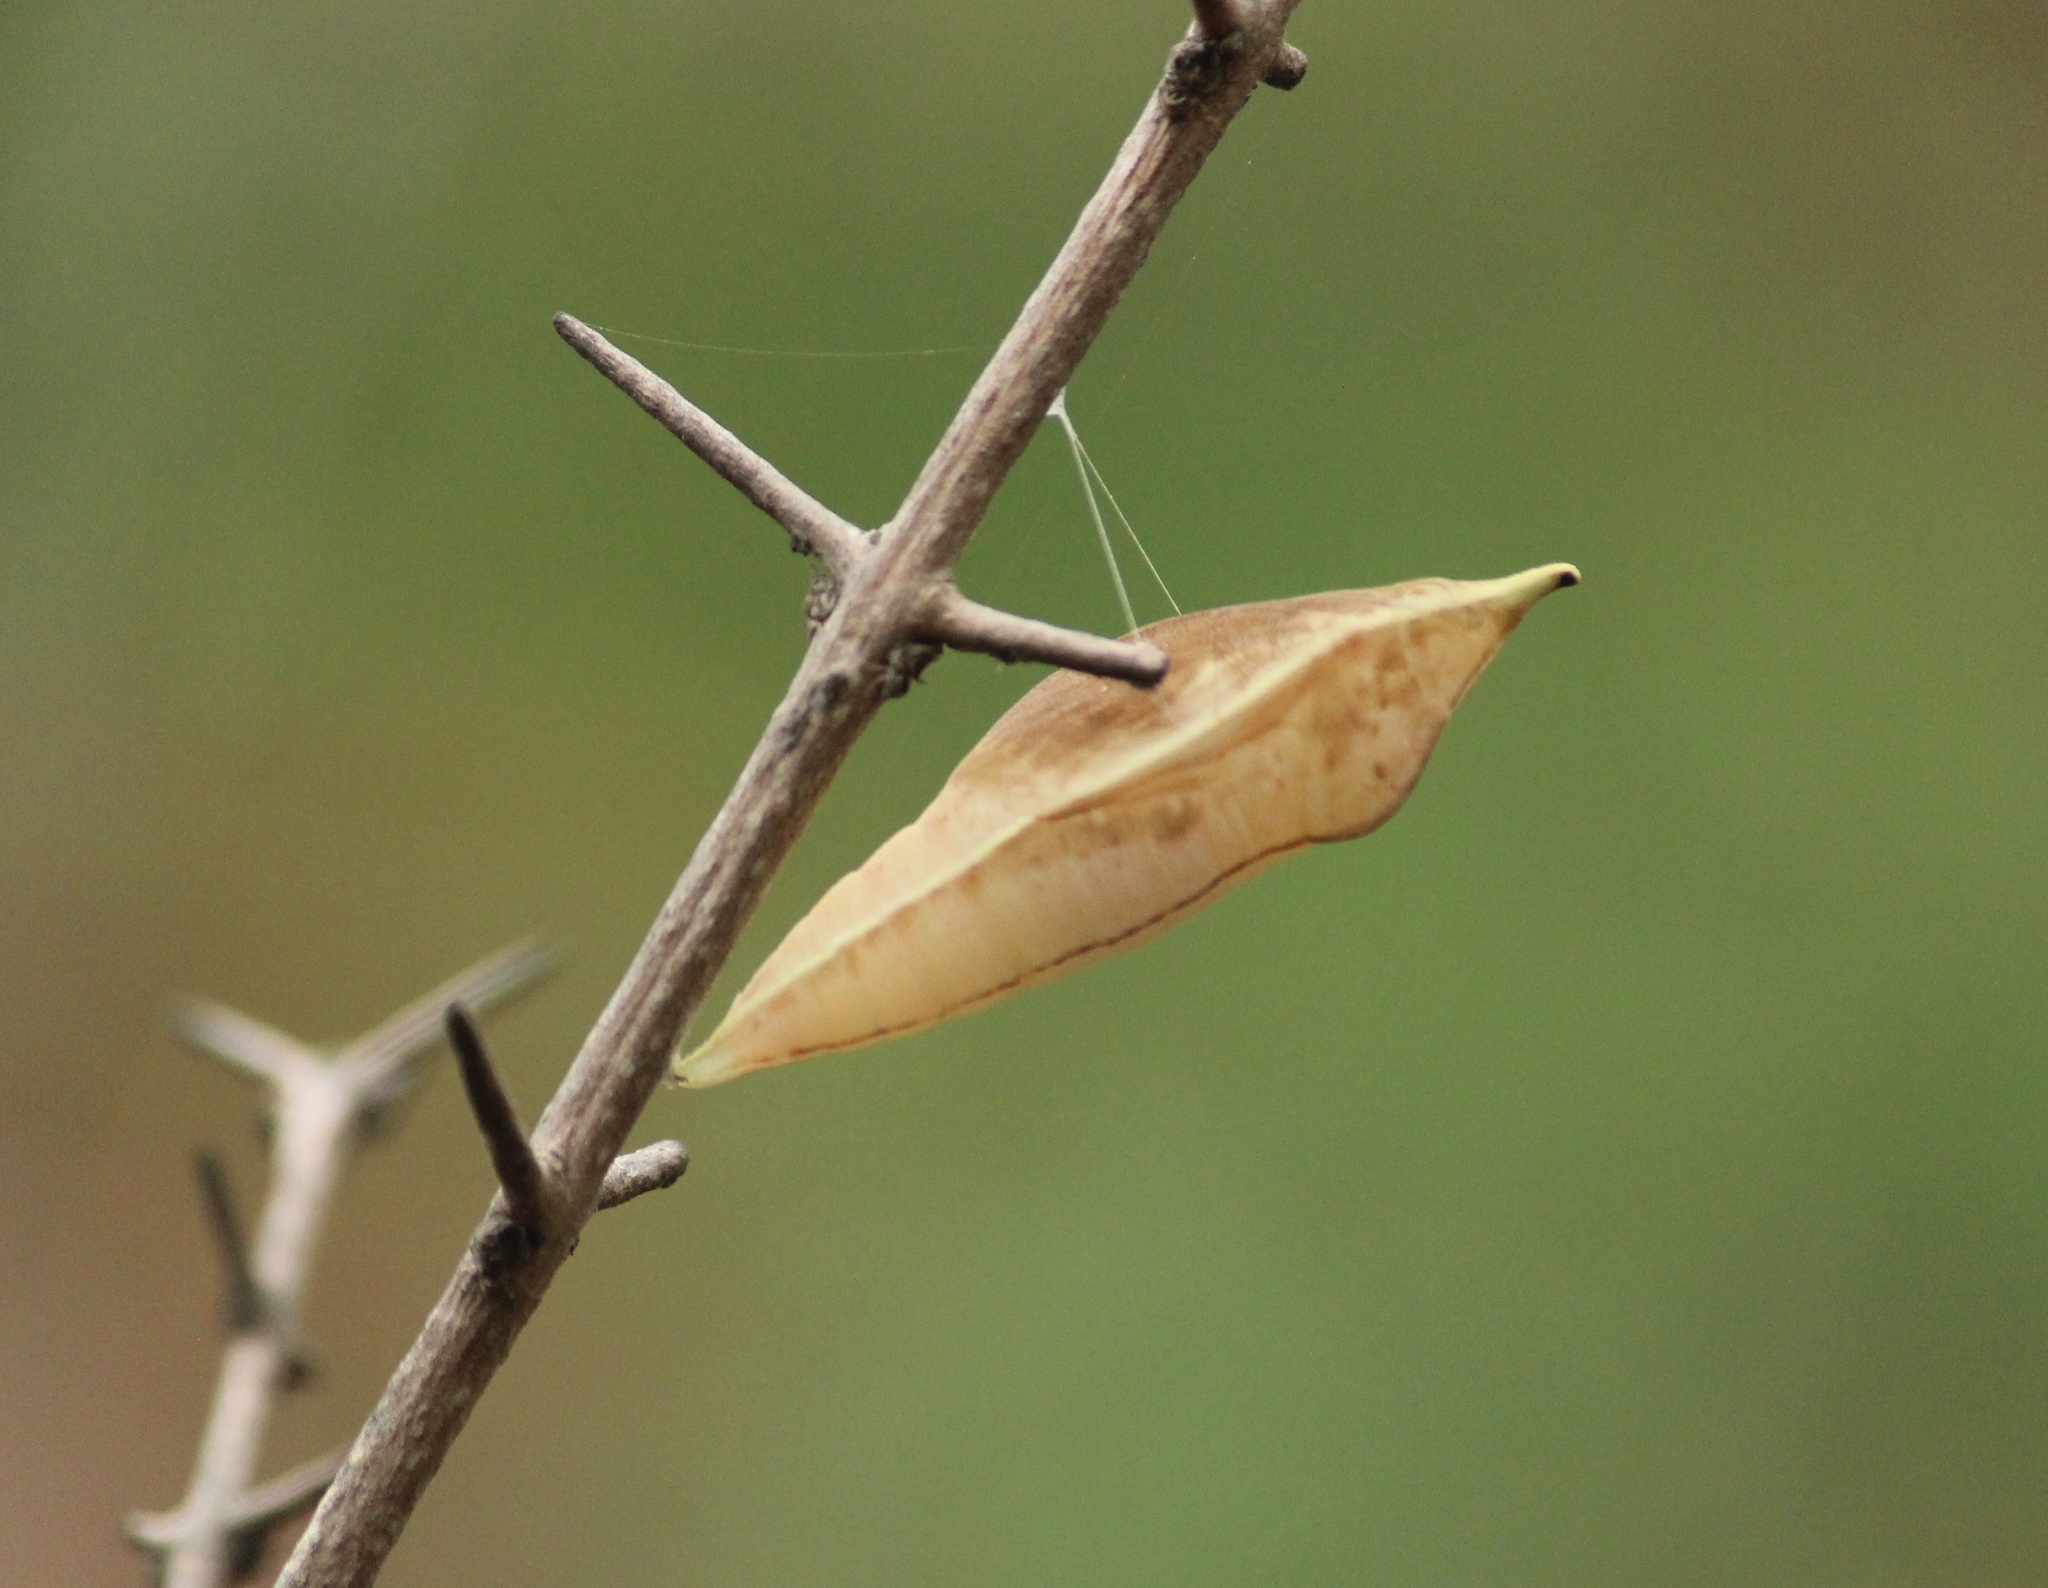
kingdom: Animalia
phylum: Arthropoda
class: Insecta
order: Lepidoptera
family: Pieridae
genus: Catopsilia
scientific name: Catopsilia pomona
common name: Common emigrant
